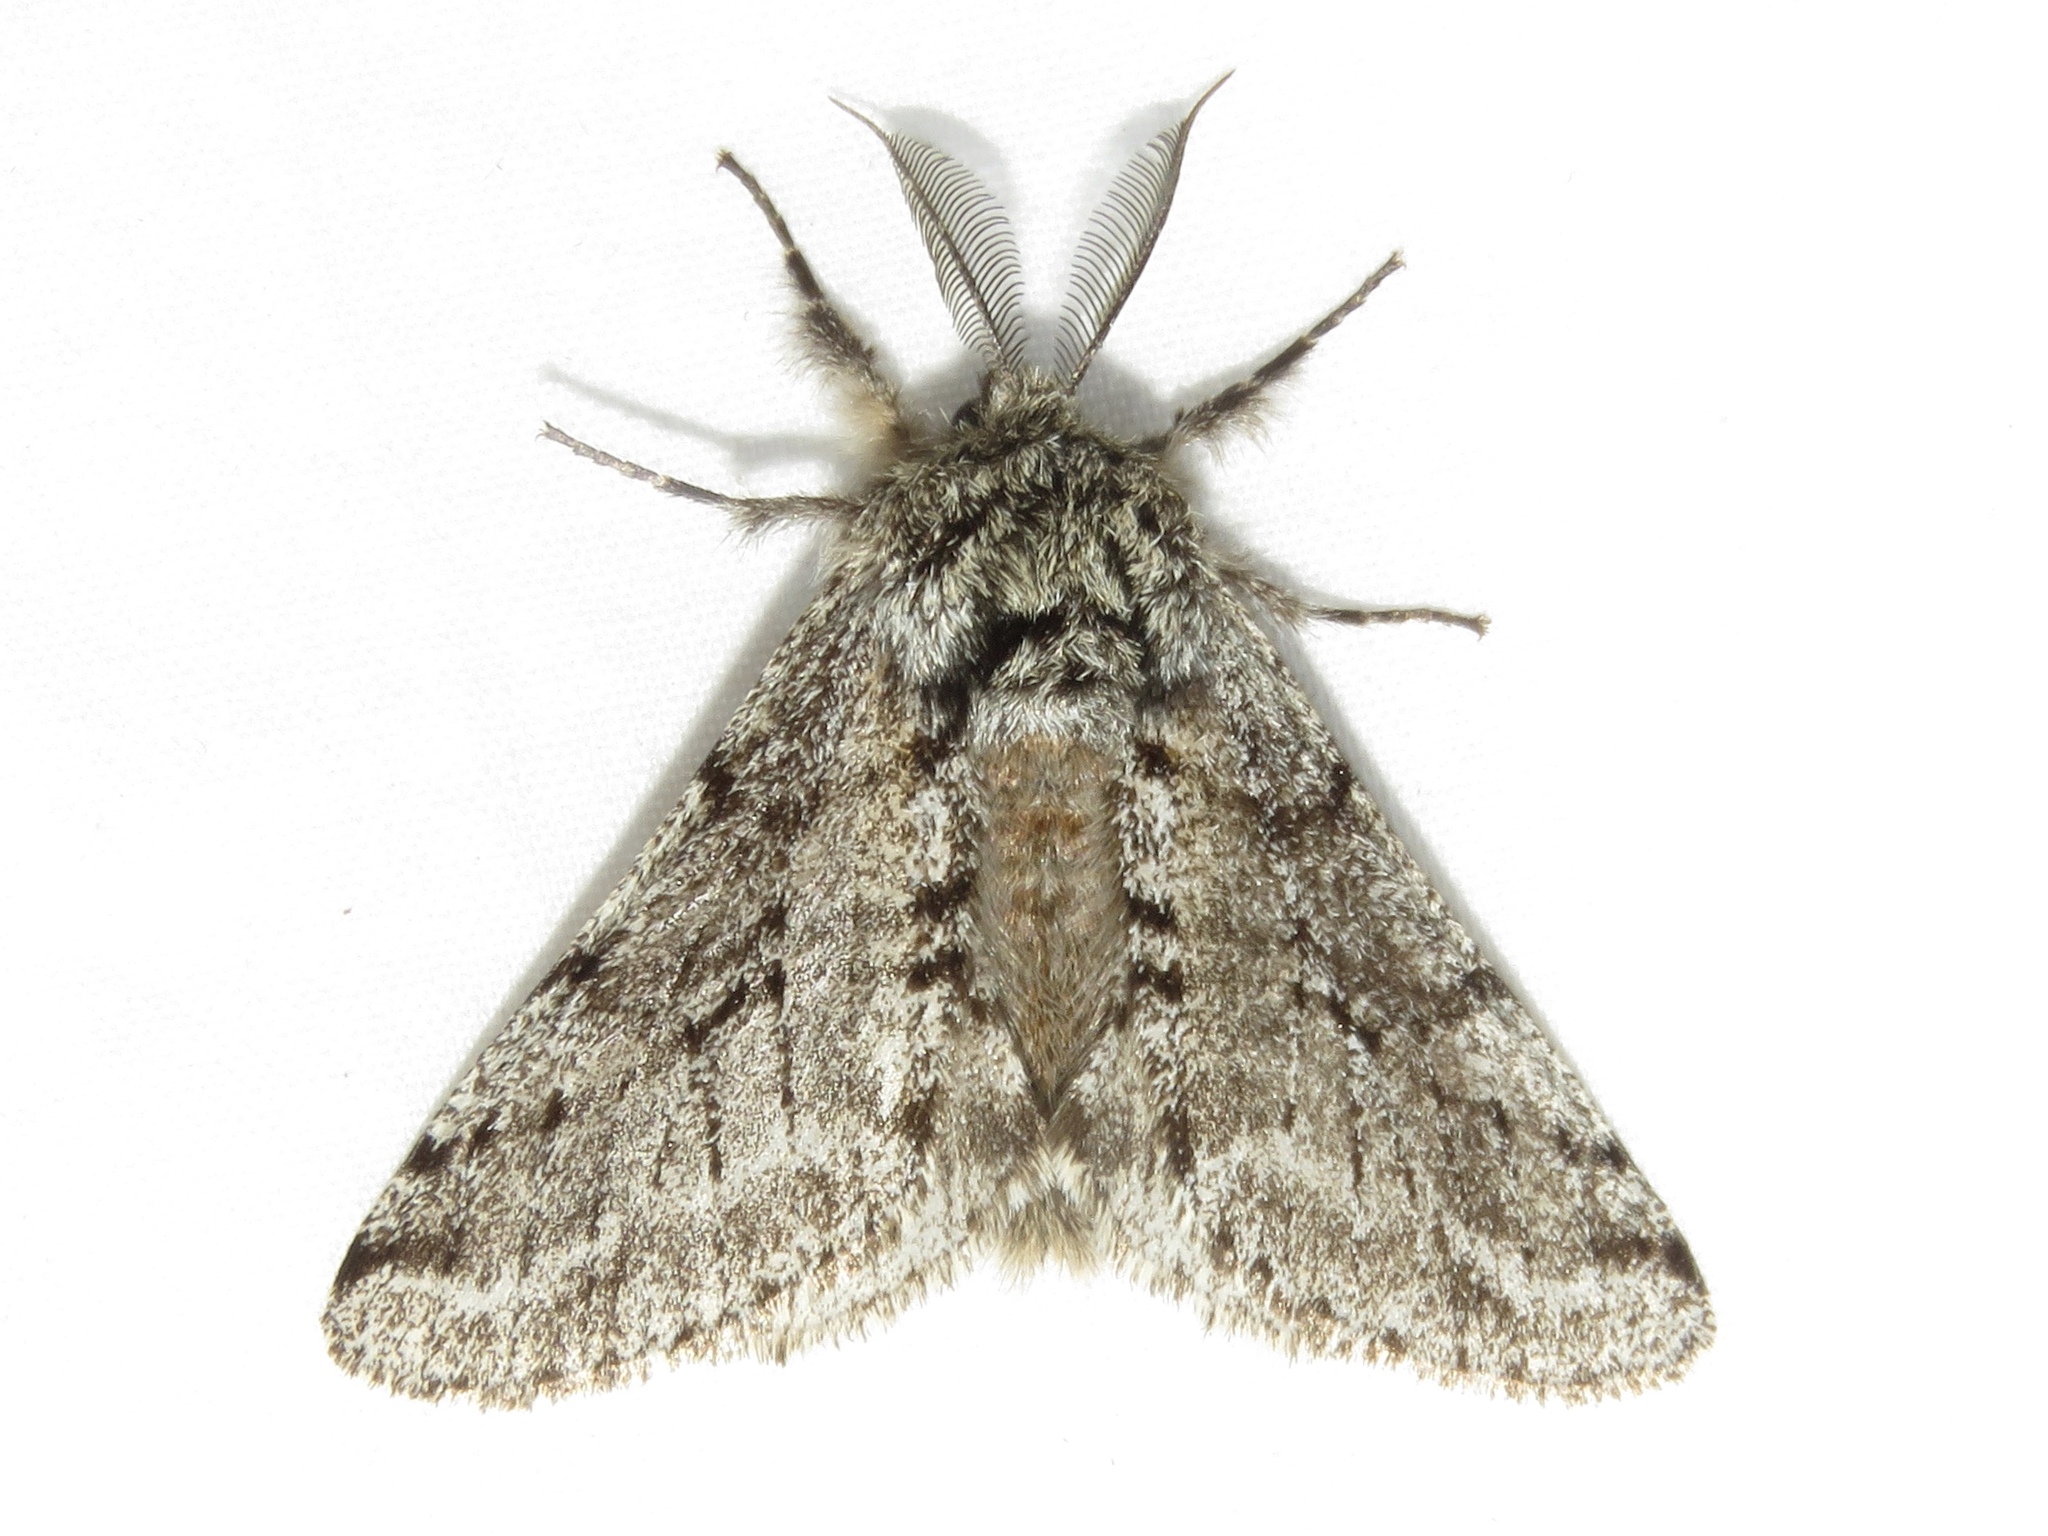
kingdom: Animalia
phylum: Arthropoda
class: Insecta
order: Lepidoptera
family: Geometridae
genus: Lycia
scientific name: Lycia ursaria
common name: Stout spanworm
